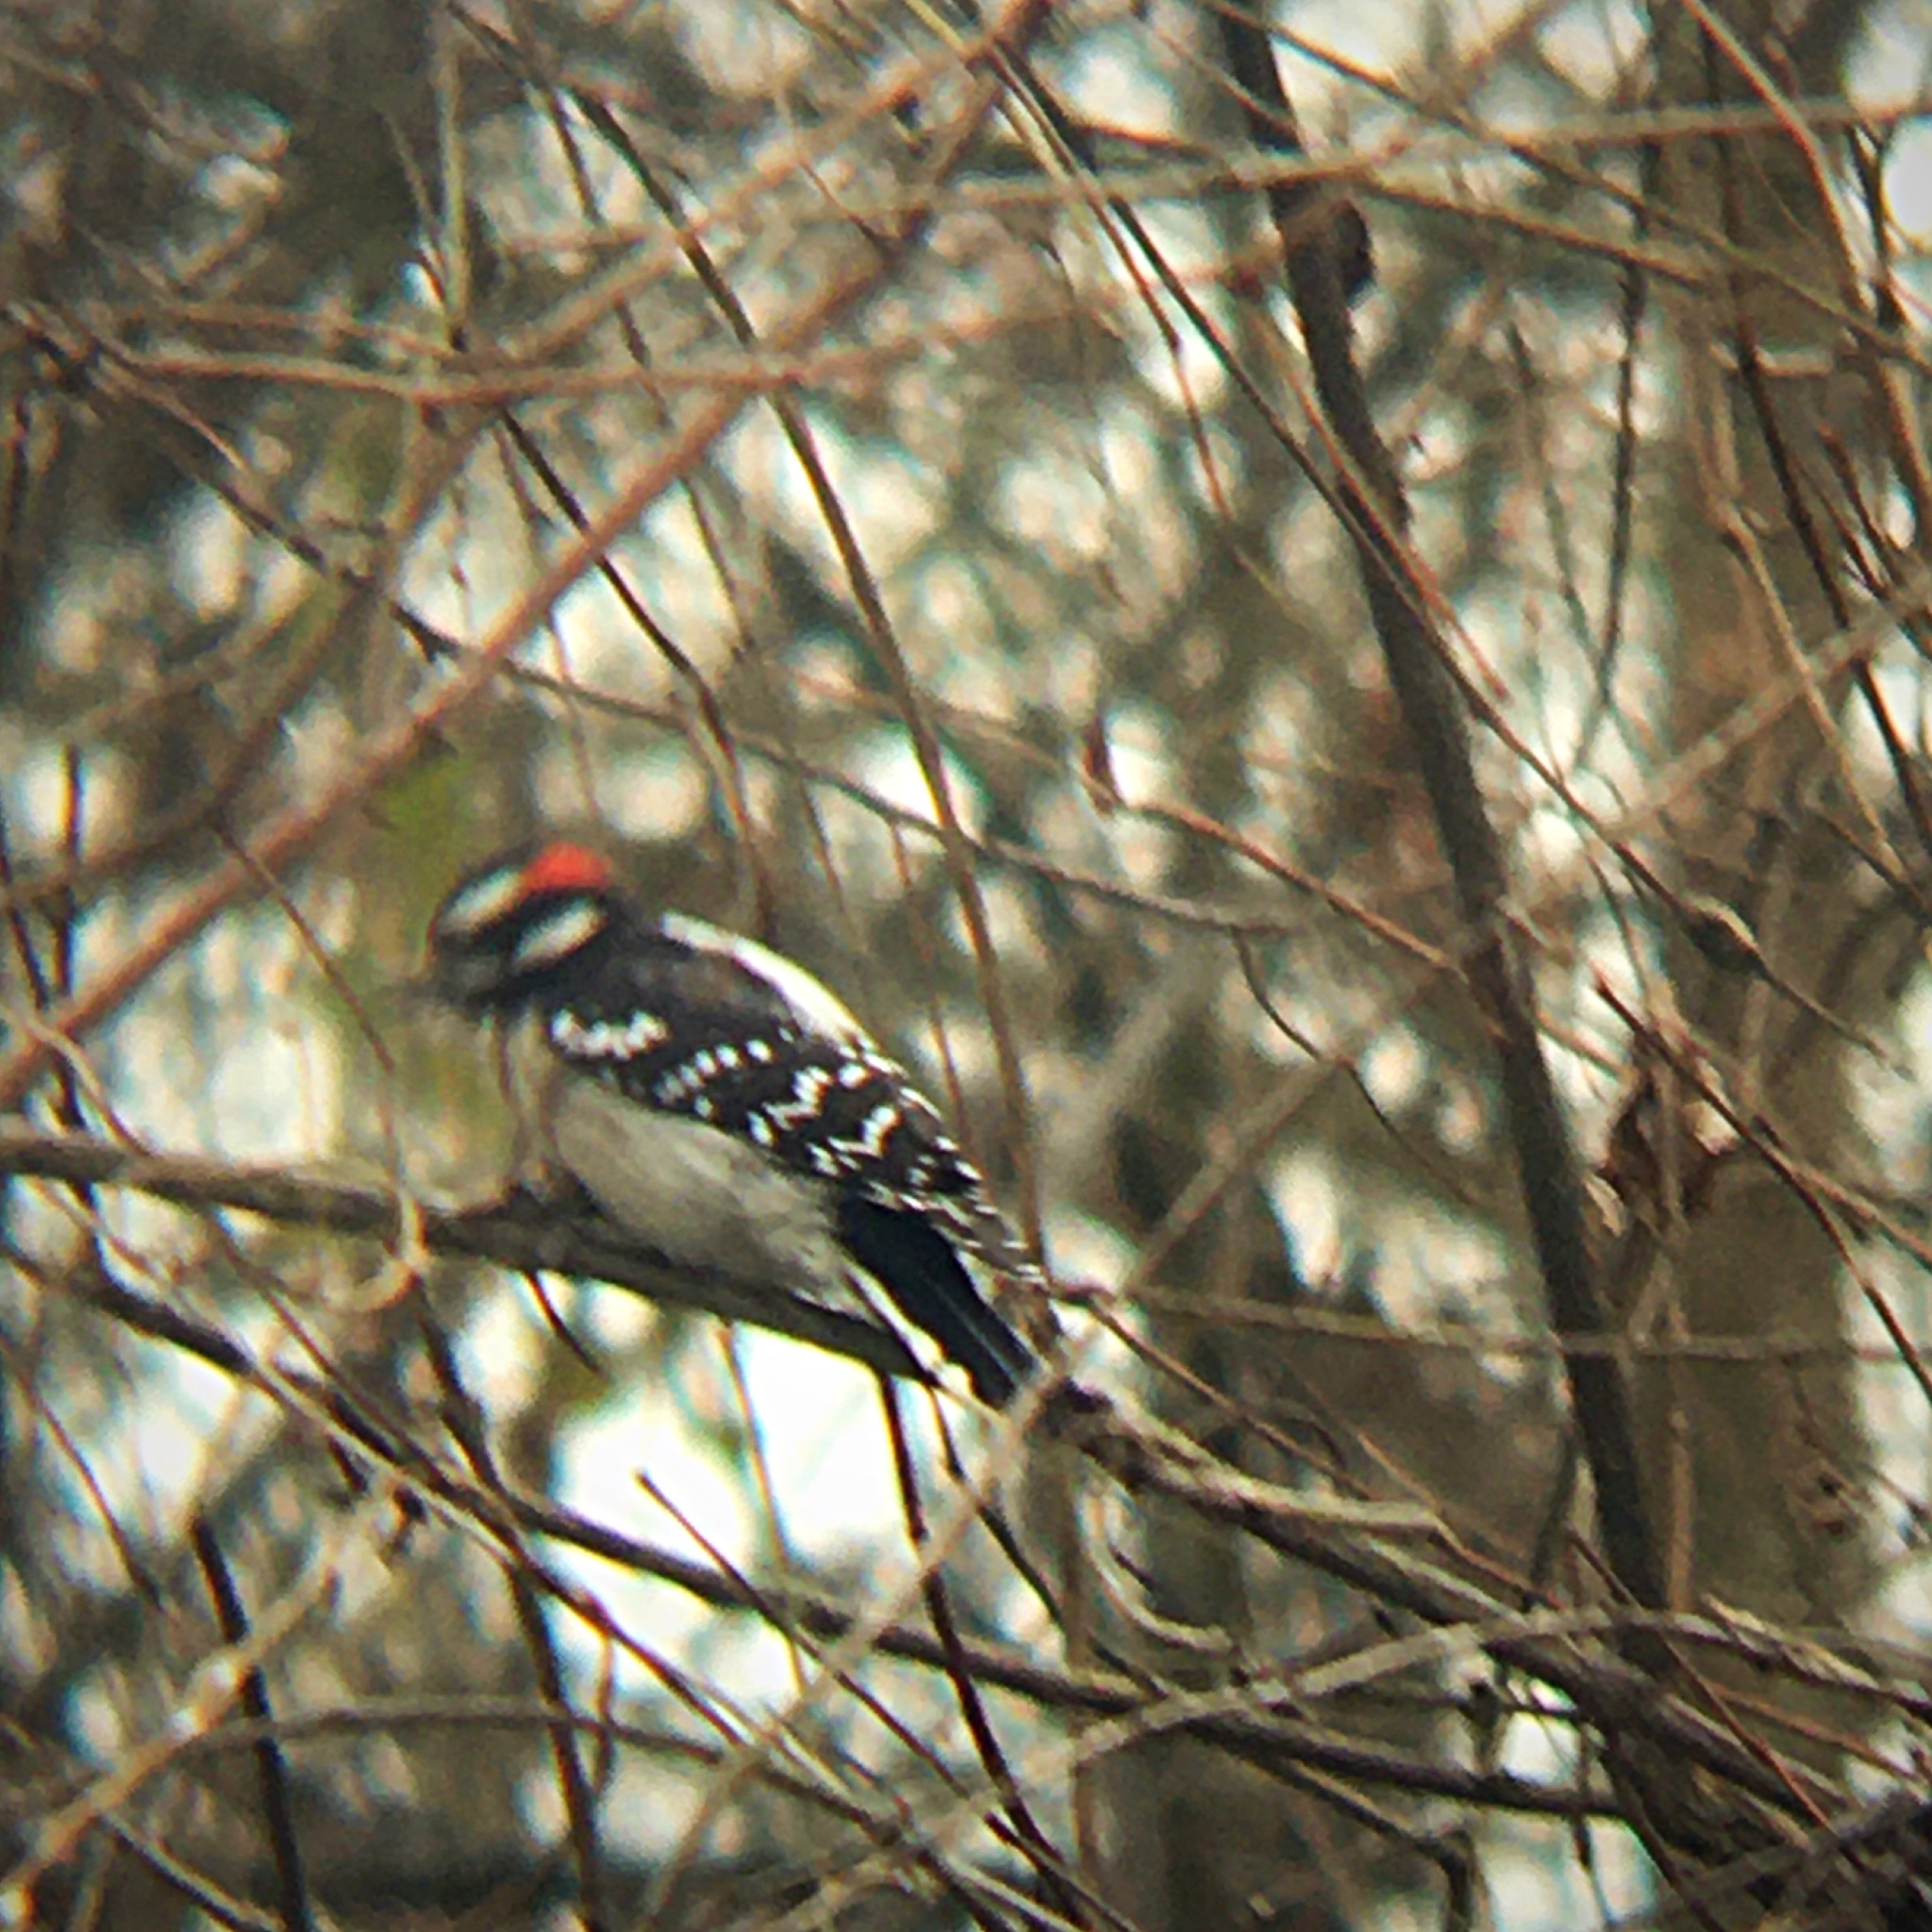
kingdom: Animalia
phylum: Chordata
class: Aves
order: Piciformes
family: Picidae
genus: Dryobates
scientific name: Dryobates pubescens
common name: Downy woodpecker
